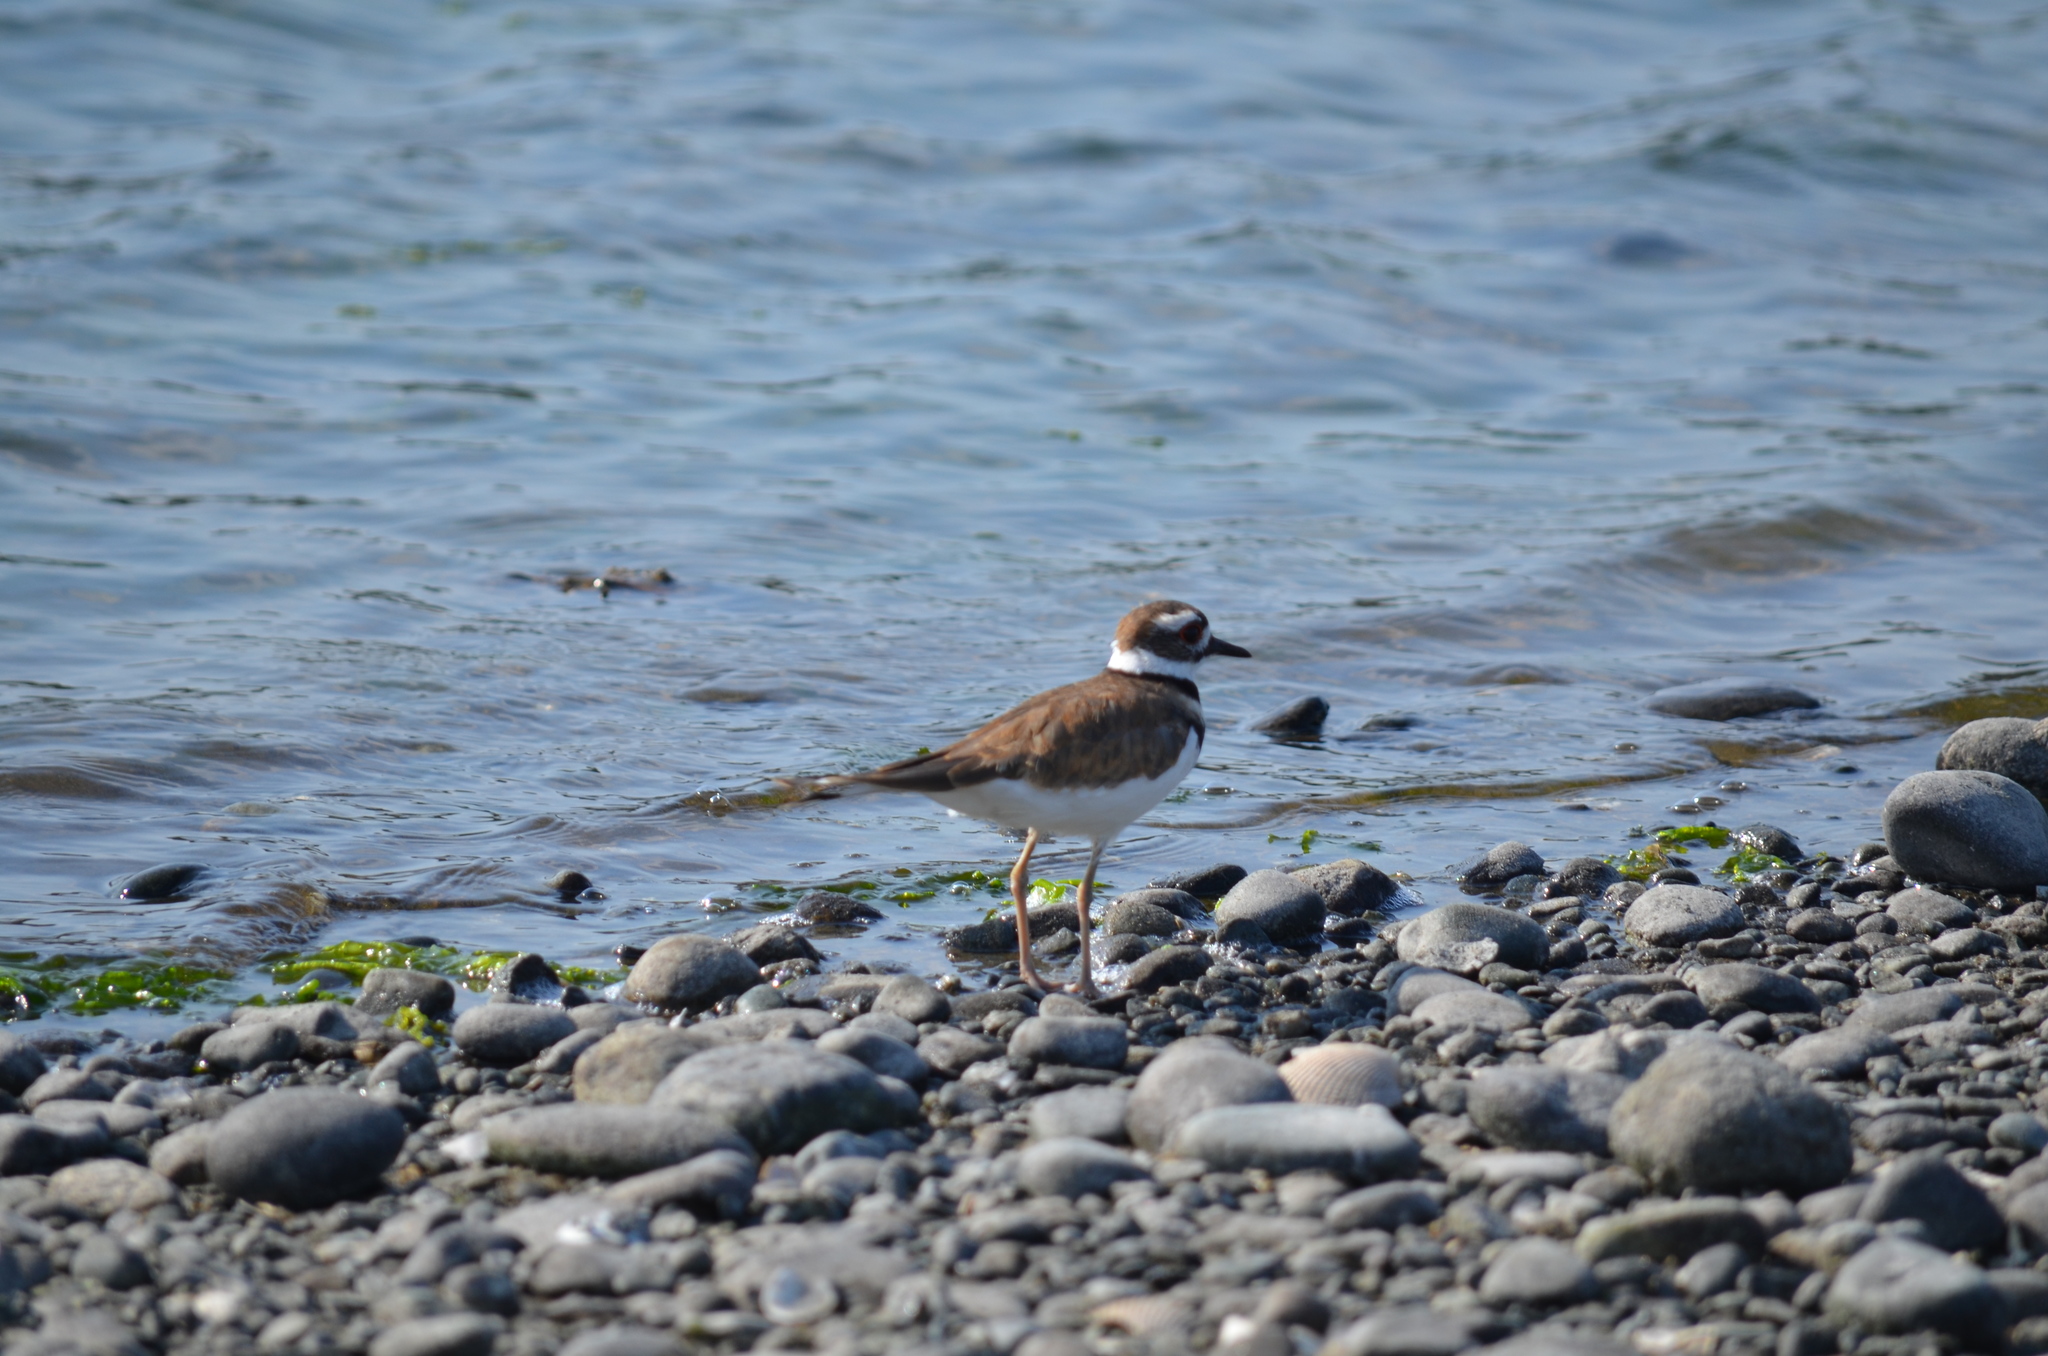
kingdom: Animalia
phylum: Chordata
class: Aves
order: Charadriiformes
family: Charadriidae
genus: Charadrius
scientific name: Charadrius vociferus
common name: Killdeer
